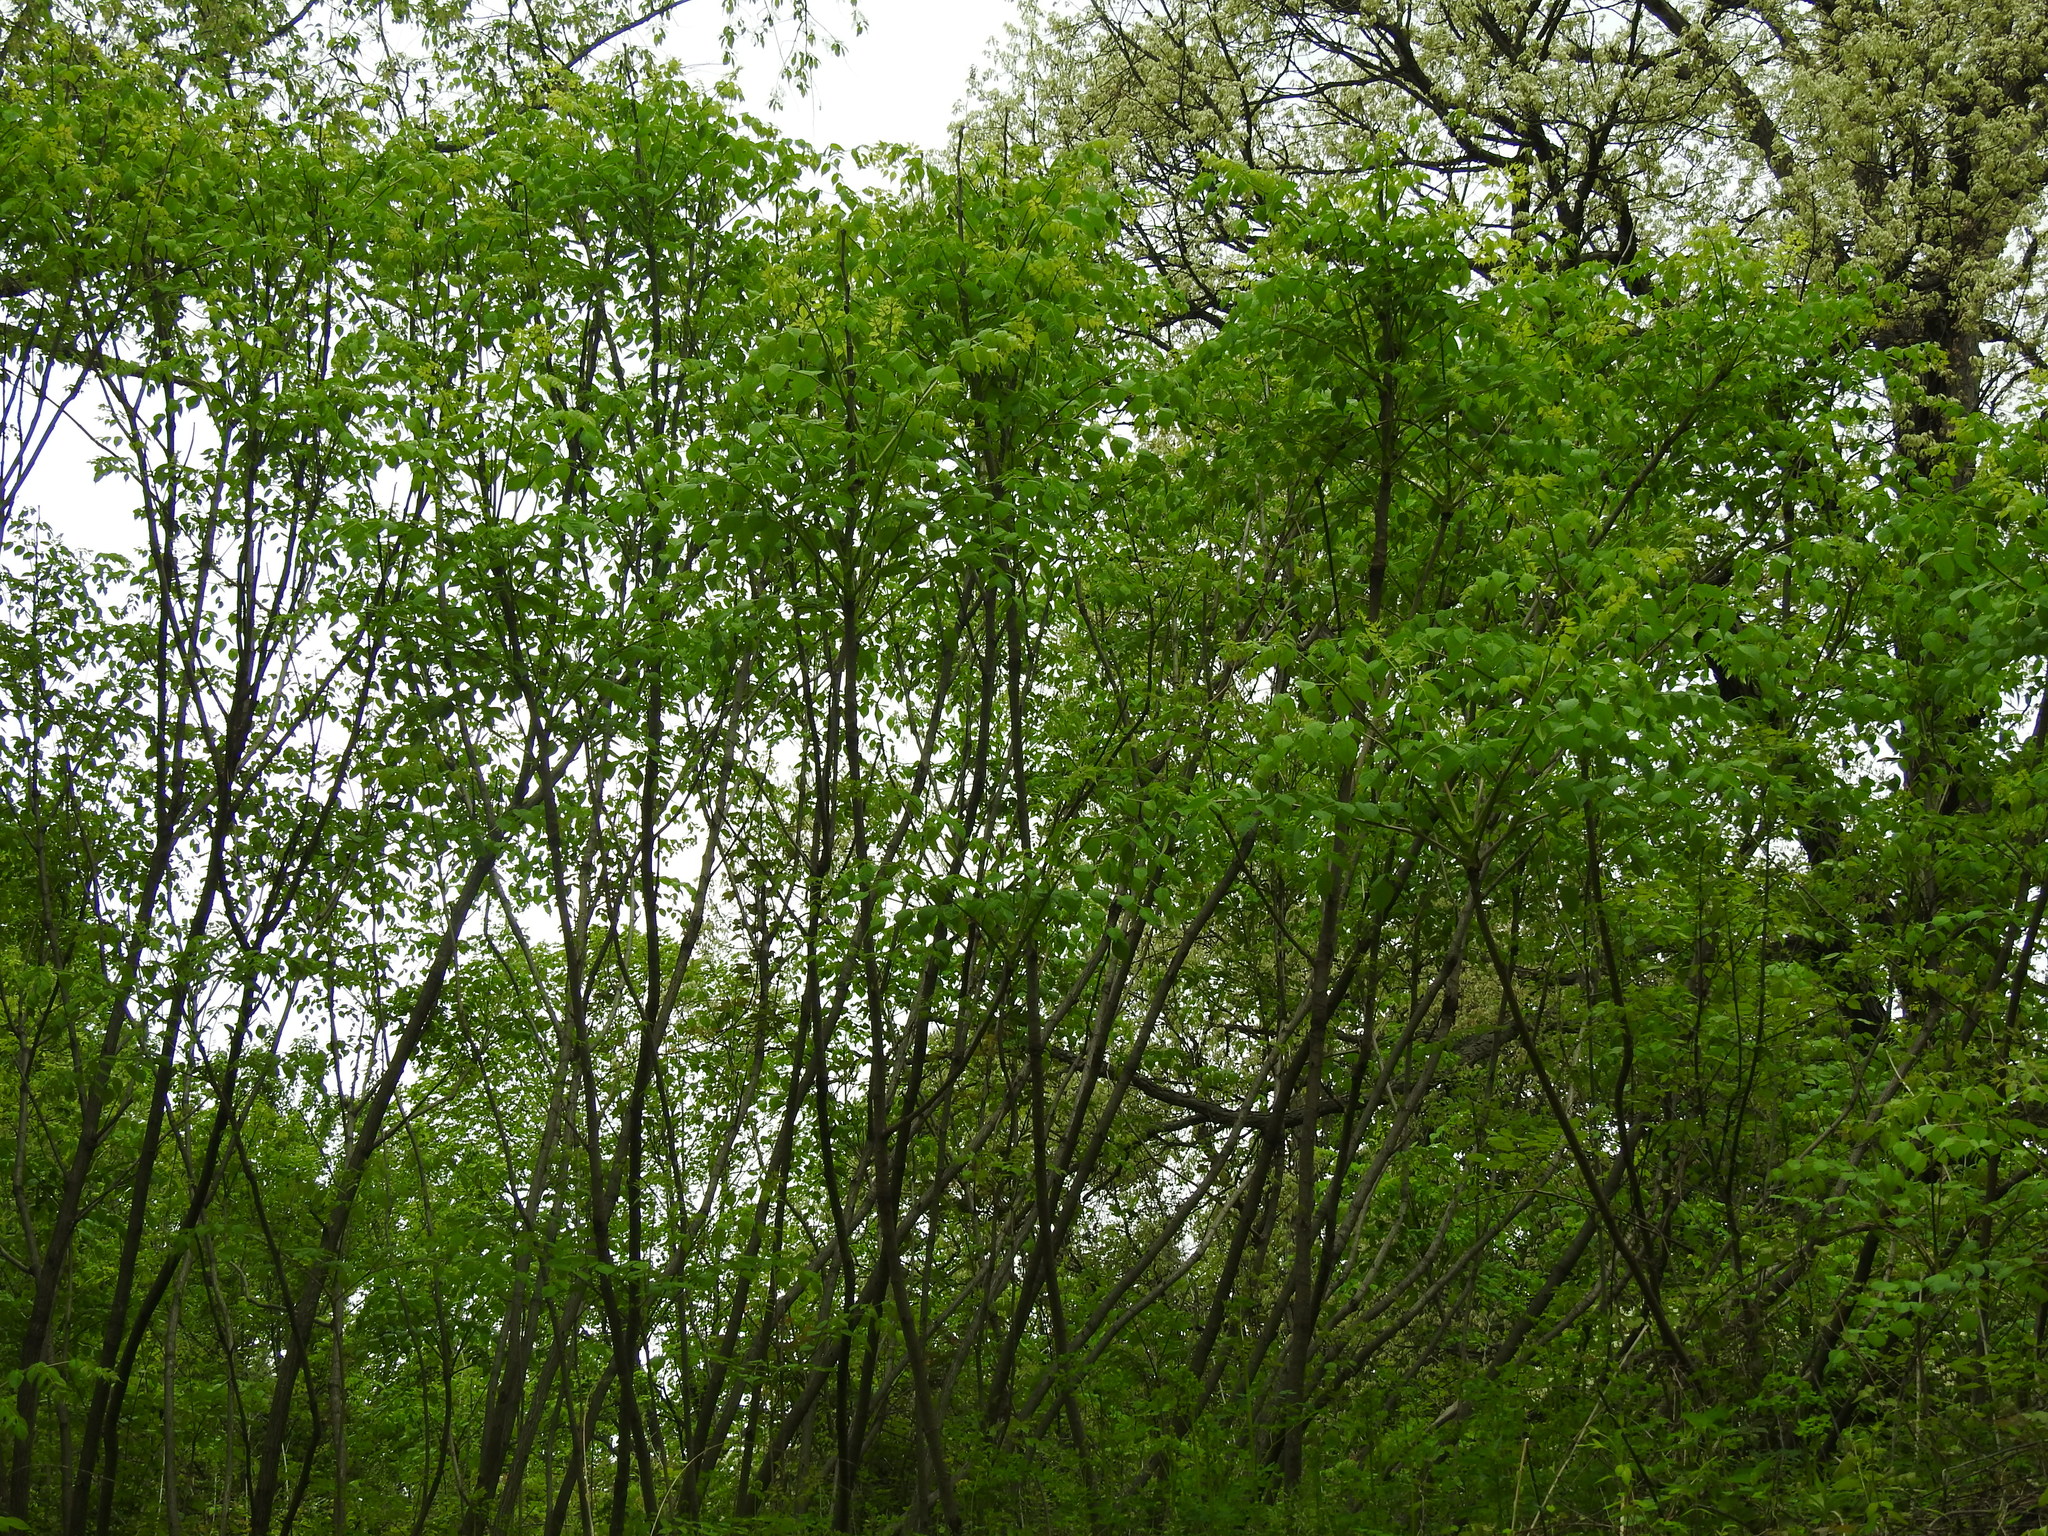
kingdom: Plantae
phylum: Tracheophyta
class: Magnoliopsida
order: Apiales
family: Araliaceae
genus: Aralia
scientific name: Aralia spinosa
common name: Hercules'-club
